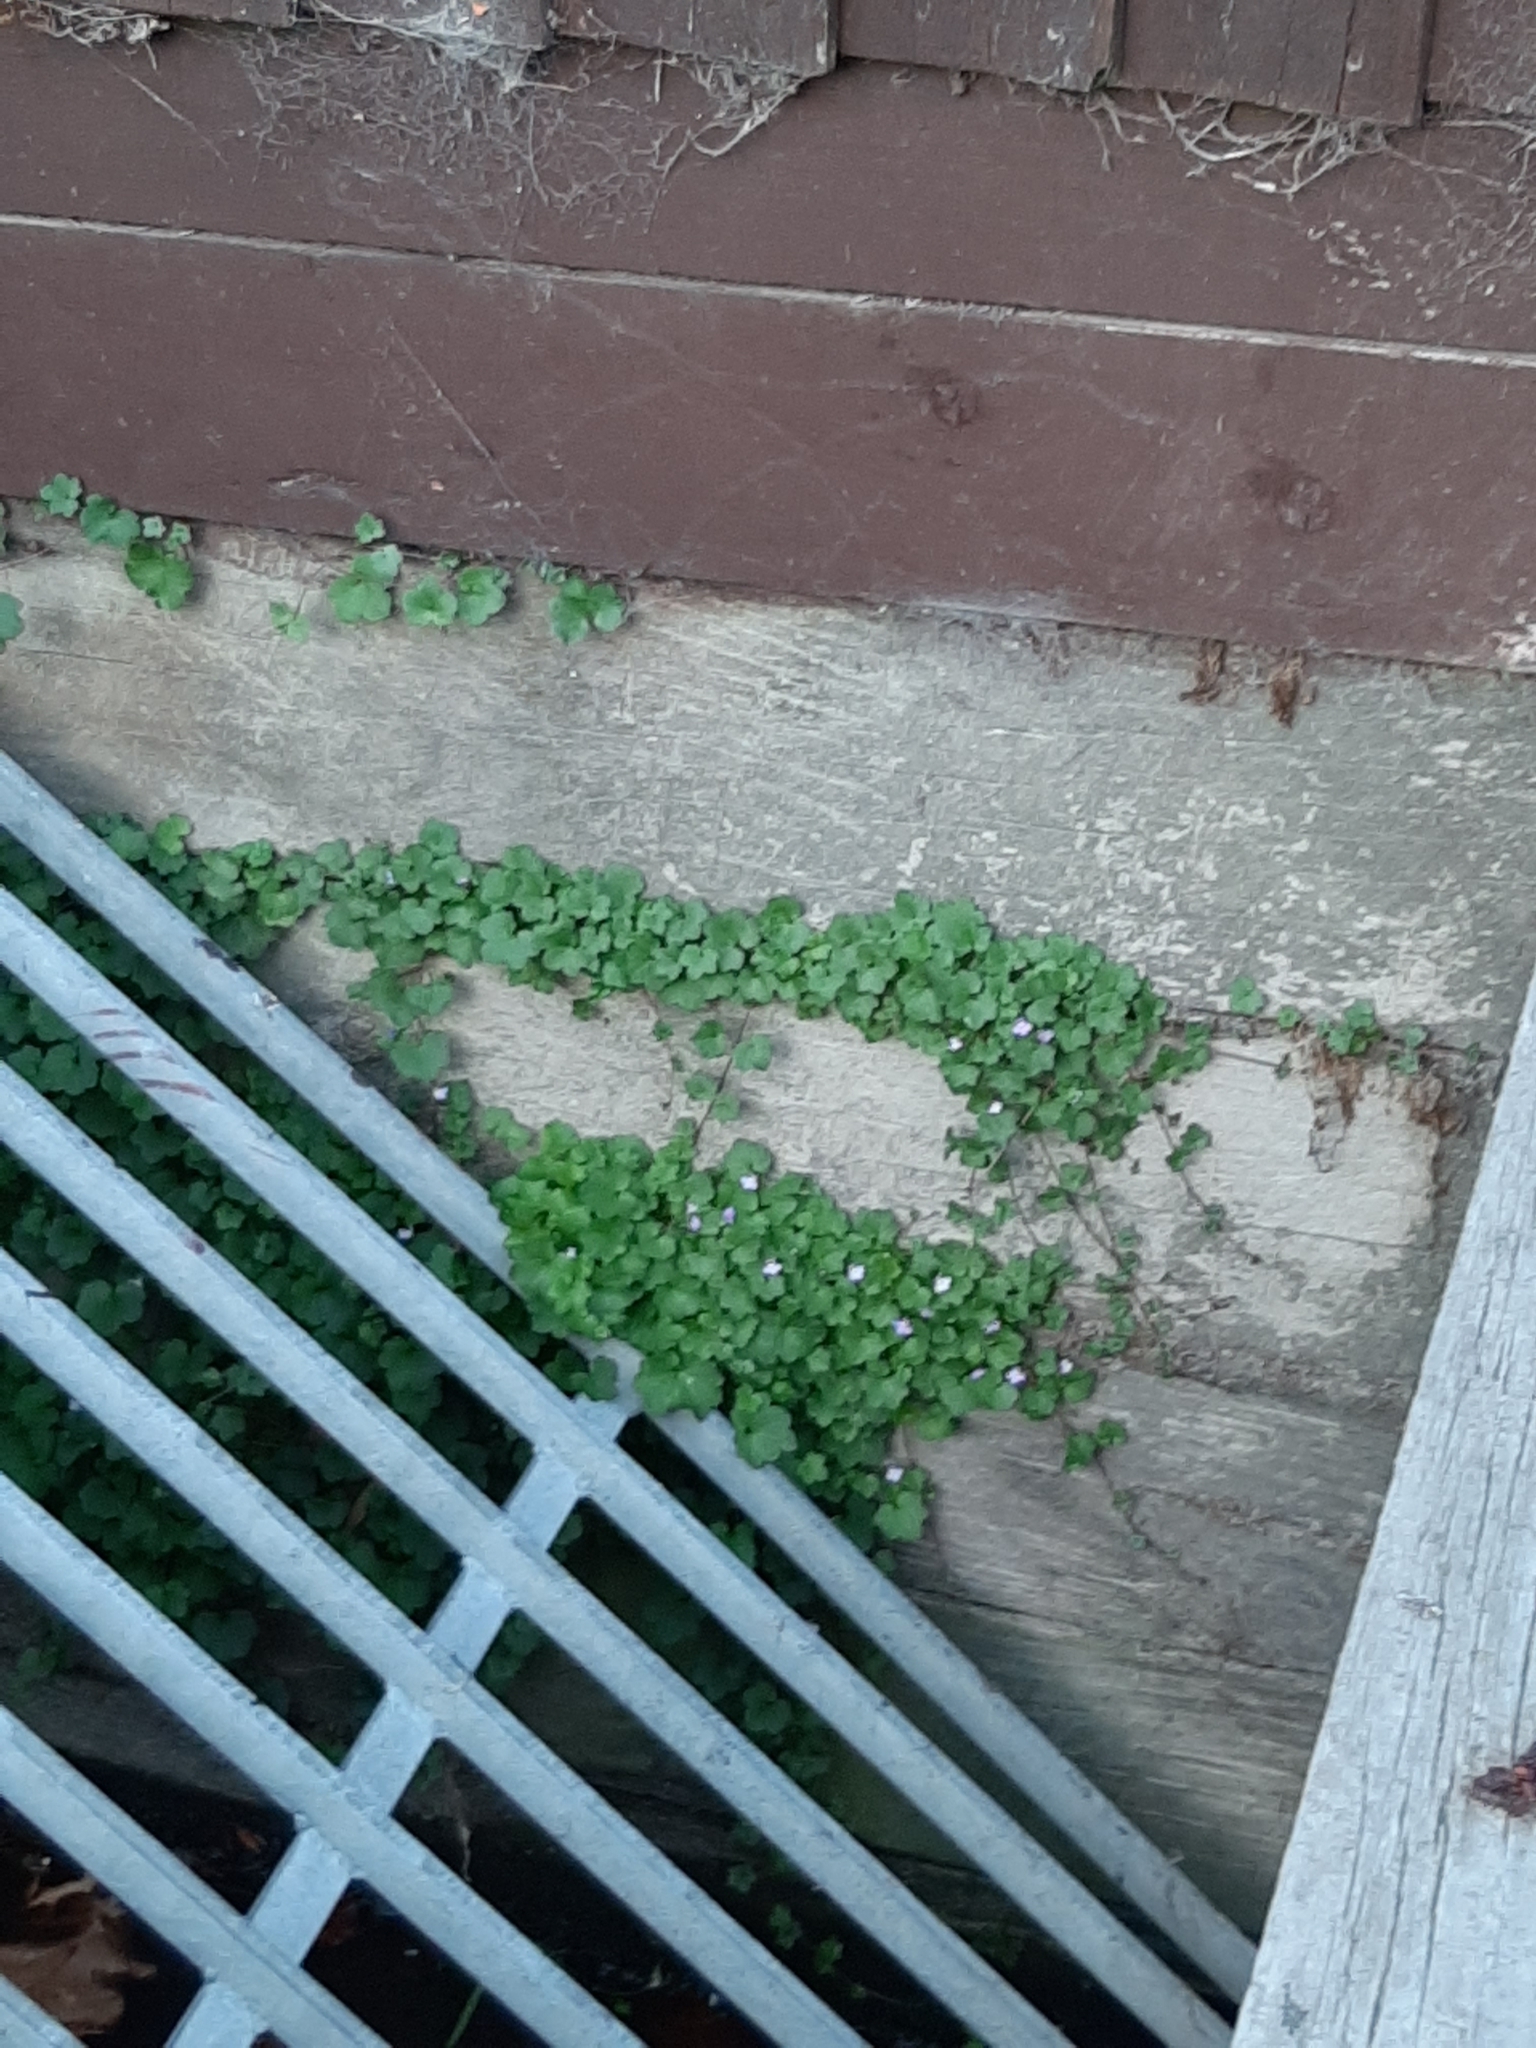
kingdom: Plantae
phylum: Tracheophyta
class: Magnoliopsida
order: Lamiales
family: Plantaginaceae
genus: Cymbalaria
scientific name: Cymbalaria muralis
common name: Ivy-leaved toadflax
